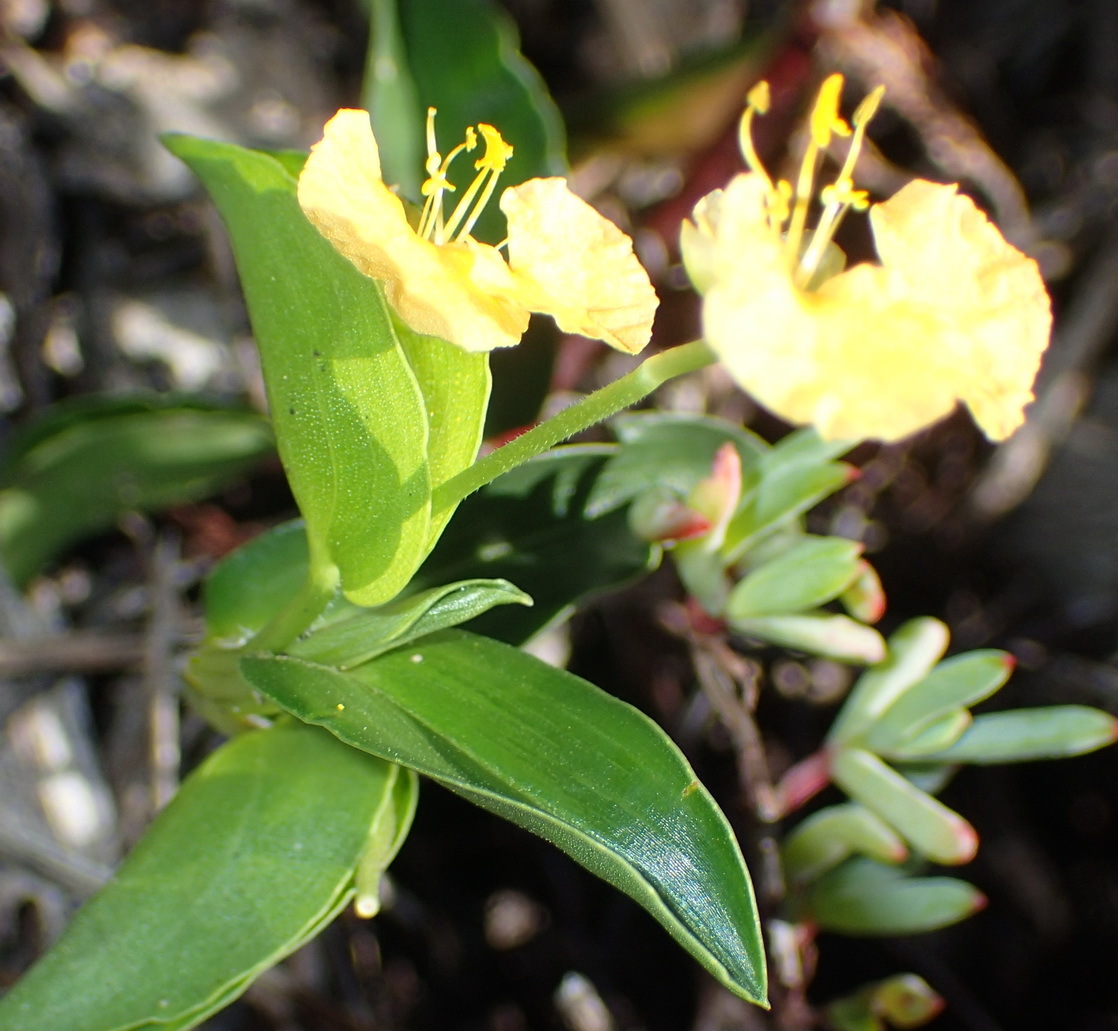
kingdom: Plantae
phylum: Tracheophyta
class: Liliopsida
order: Commelinales
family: Commelinaceae
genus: Commelina
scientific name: Commelina africana
